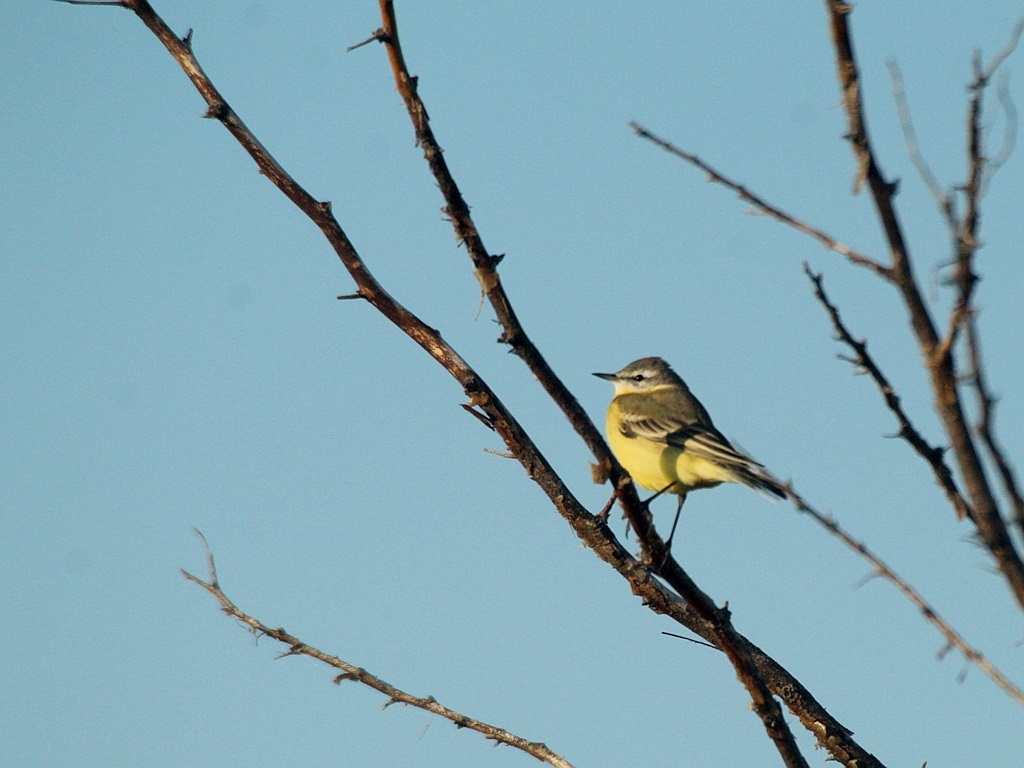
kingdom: Animalia
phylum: Chordata
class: Aves
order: Passeriformes
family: Motacillidae
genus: Motacilla
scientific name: Motacilla flava
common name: Western yellow wagtail
